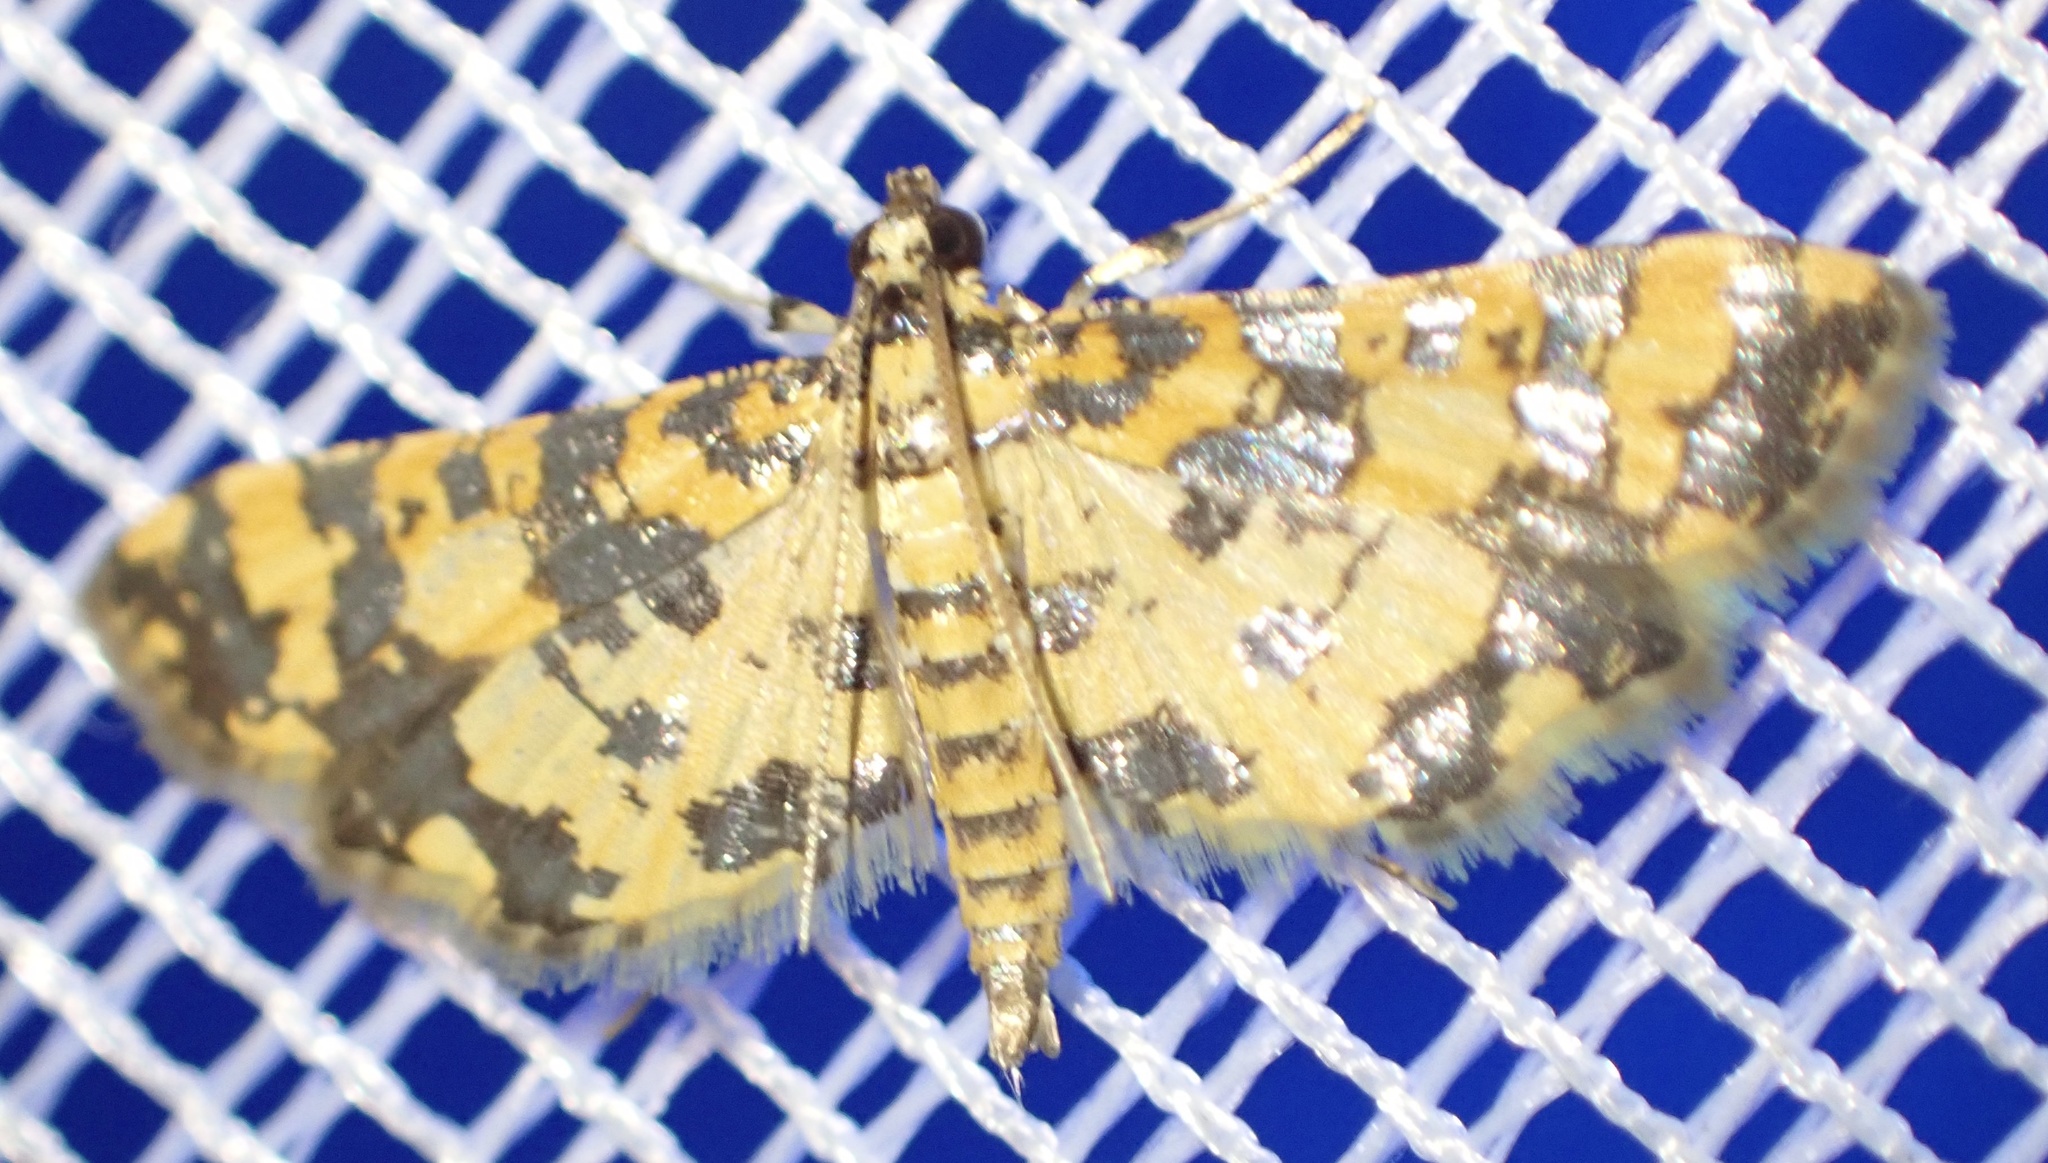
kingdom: Animalia
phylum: Arthropoda
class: Insecta
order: Lepidoptera
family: Crambidae
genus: Eurrhyparodes
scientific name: Eurrhyparodes tricoloralis
